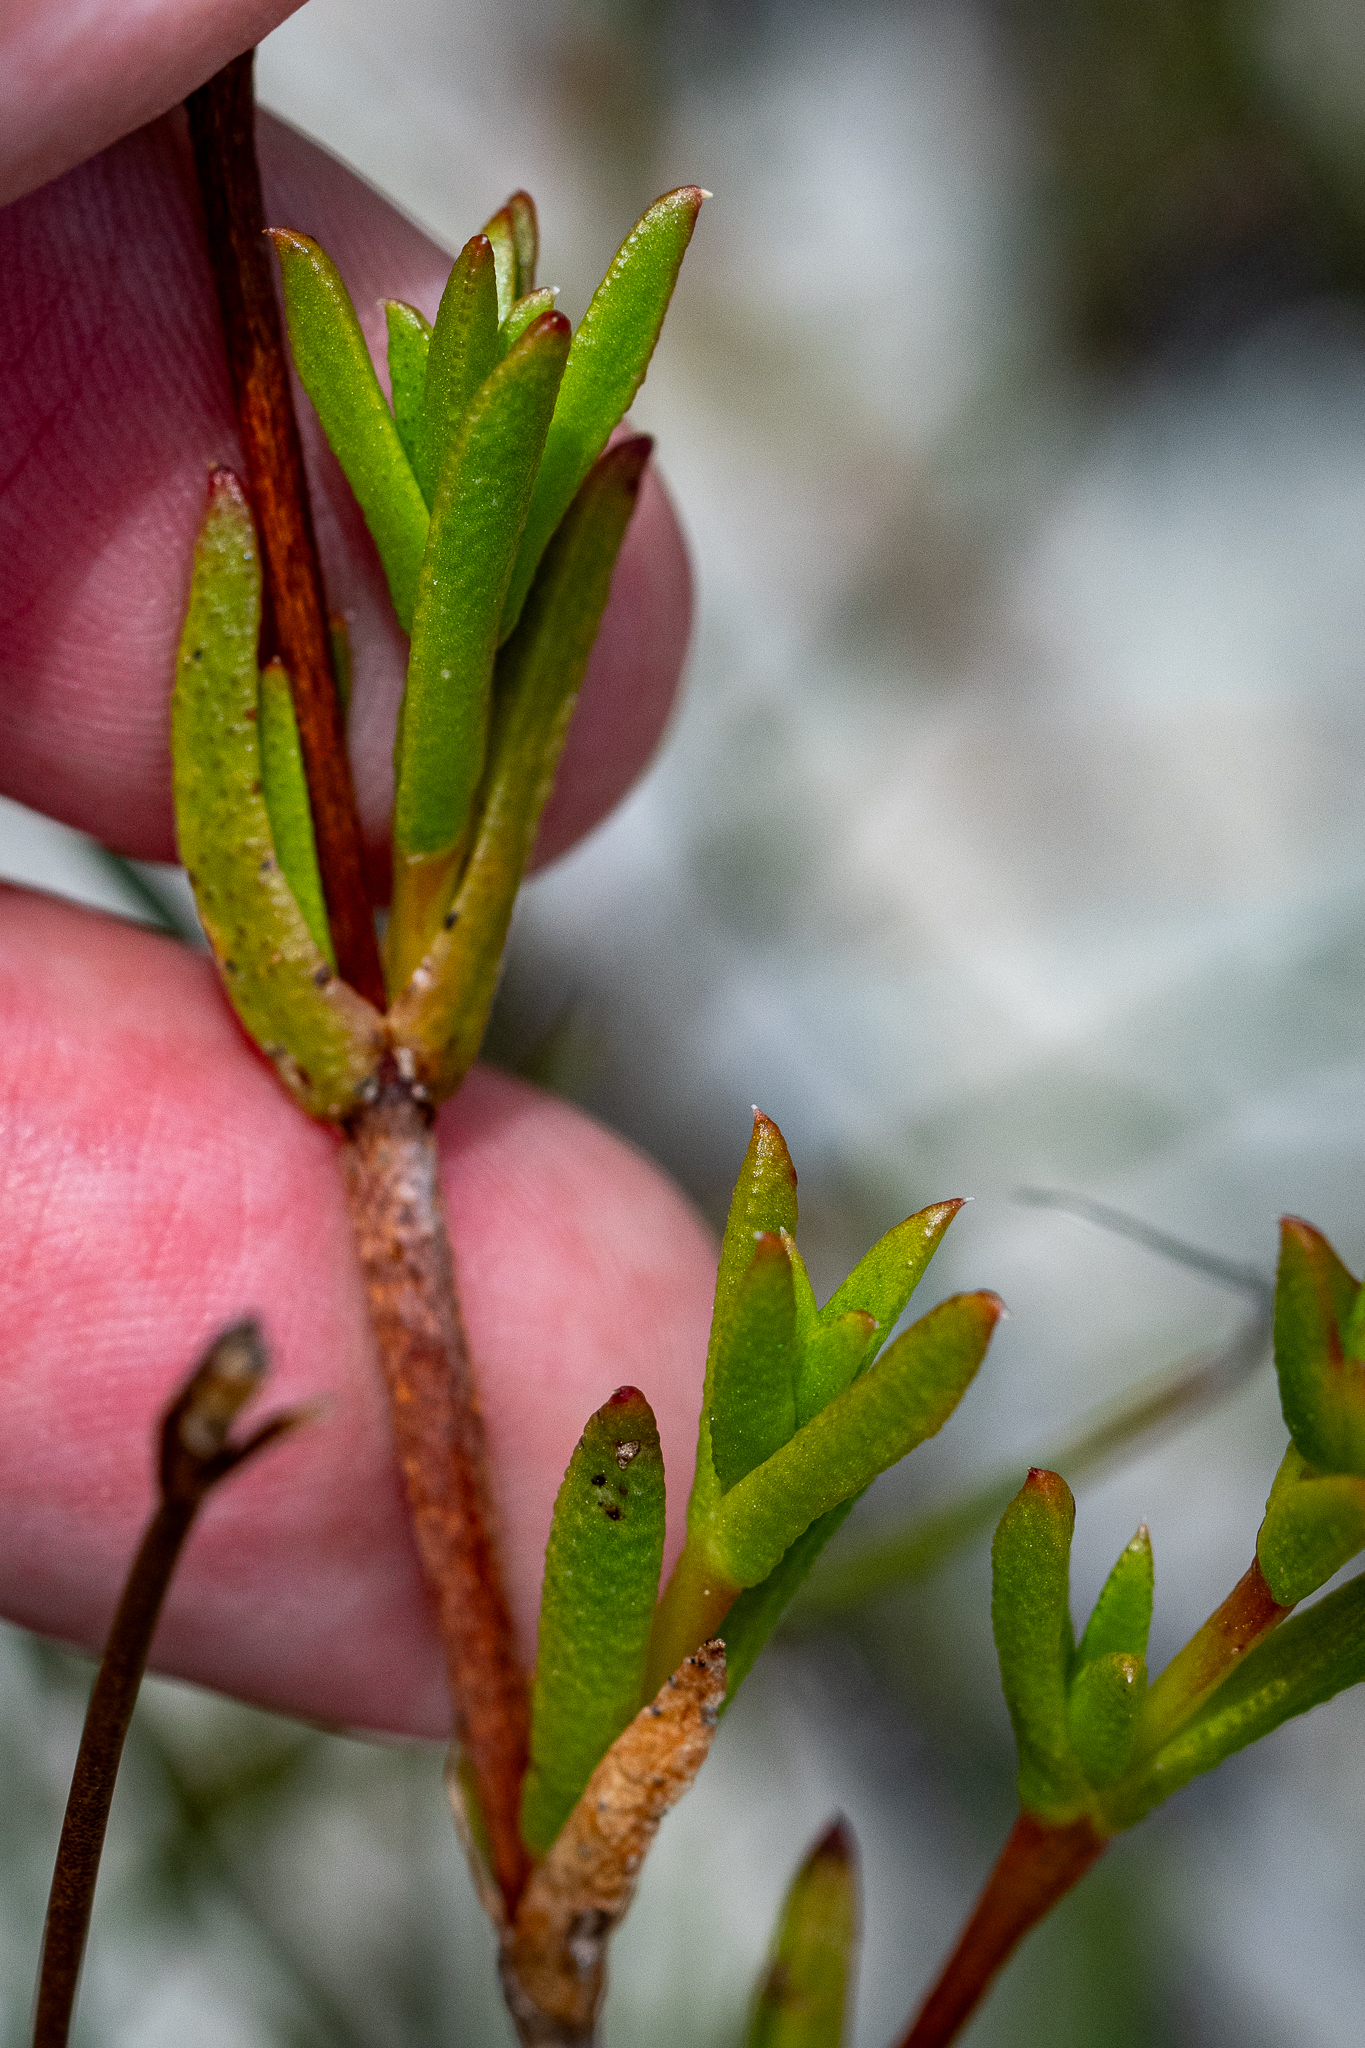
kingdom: Plantae
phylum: Tracheophyta
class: Magnoliopsida
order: Caryophyllales
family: Aizoaceae
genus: Erepsia
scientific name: Erepsia anceps
